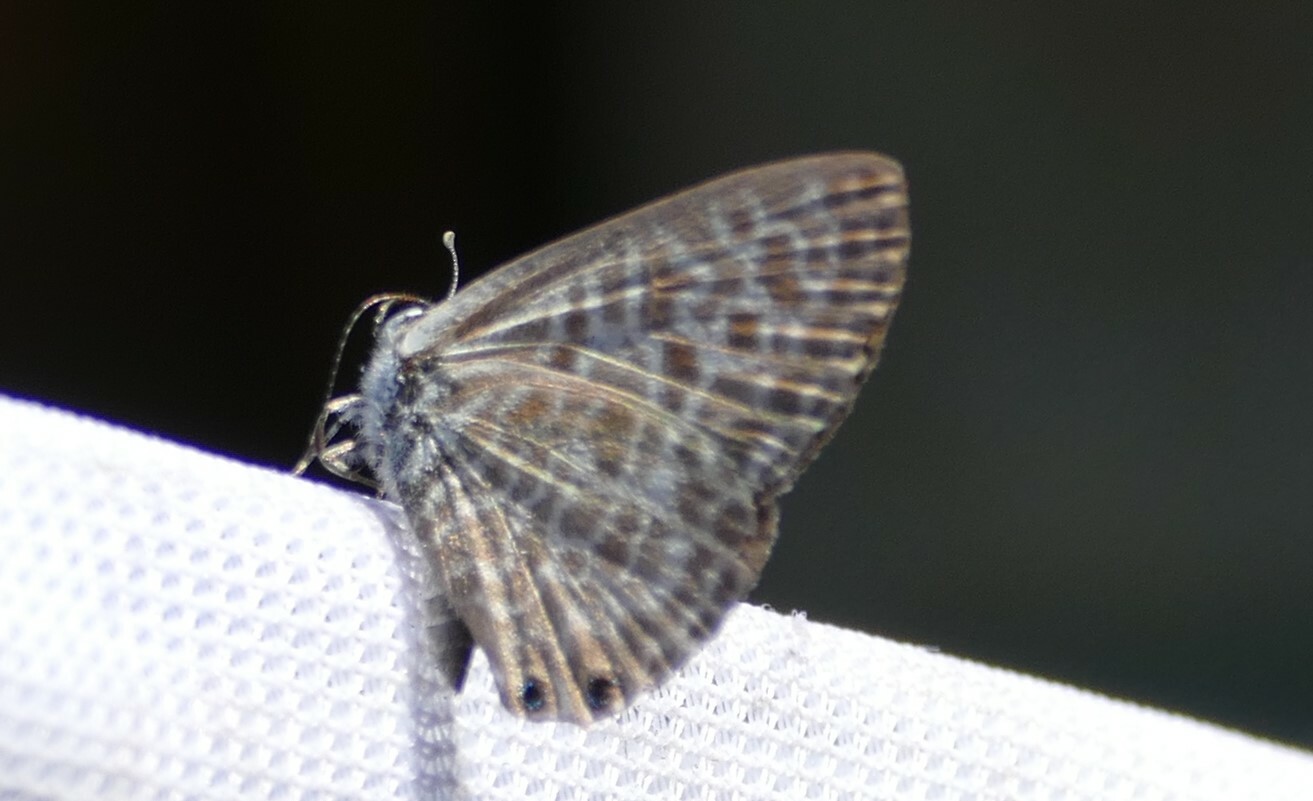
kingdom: Animalia
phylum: Arthropoda
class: Insecta
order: Lepidoptera
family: Lycaenidae
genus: Leptotes
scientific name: Leptotes pirithous
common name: Lang's short-tailed blue
